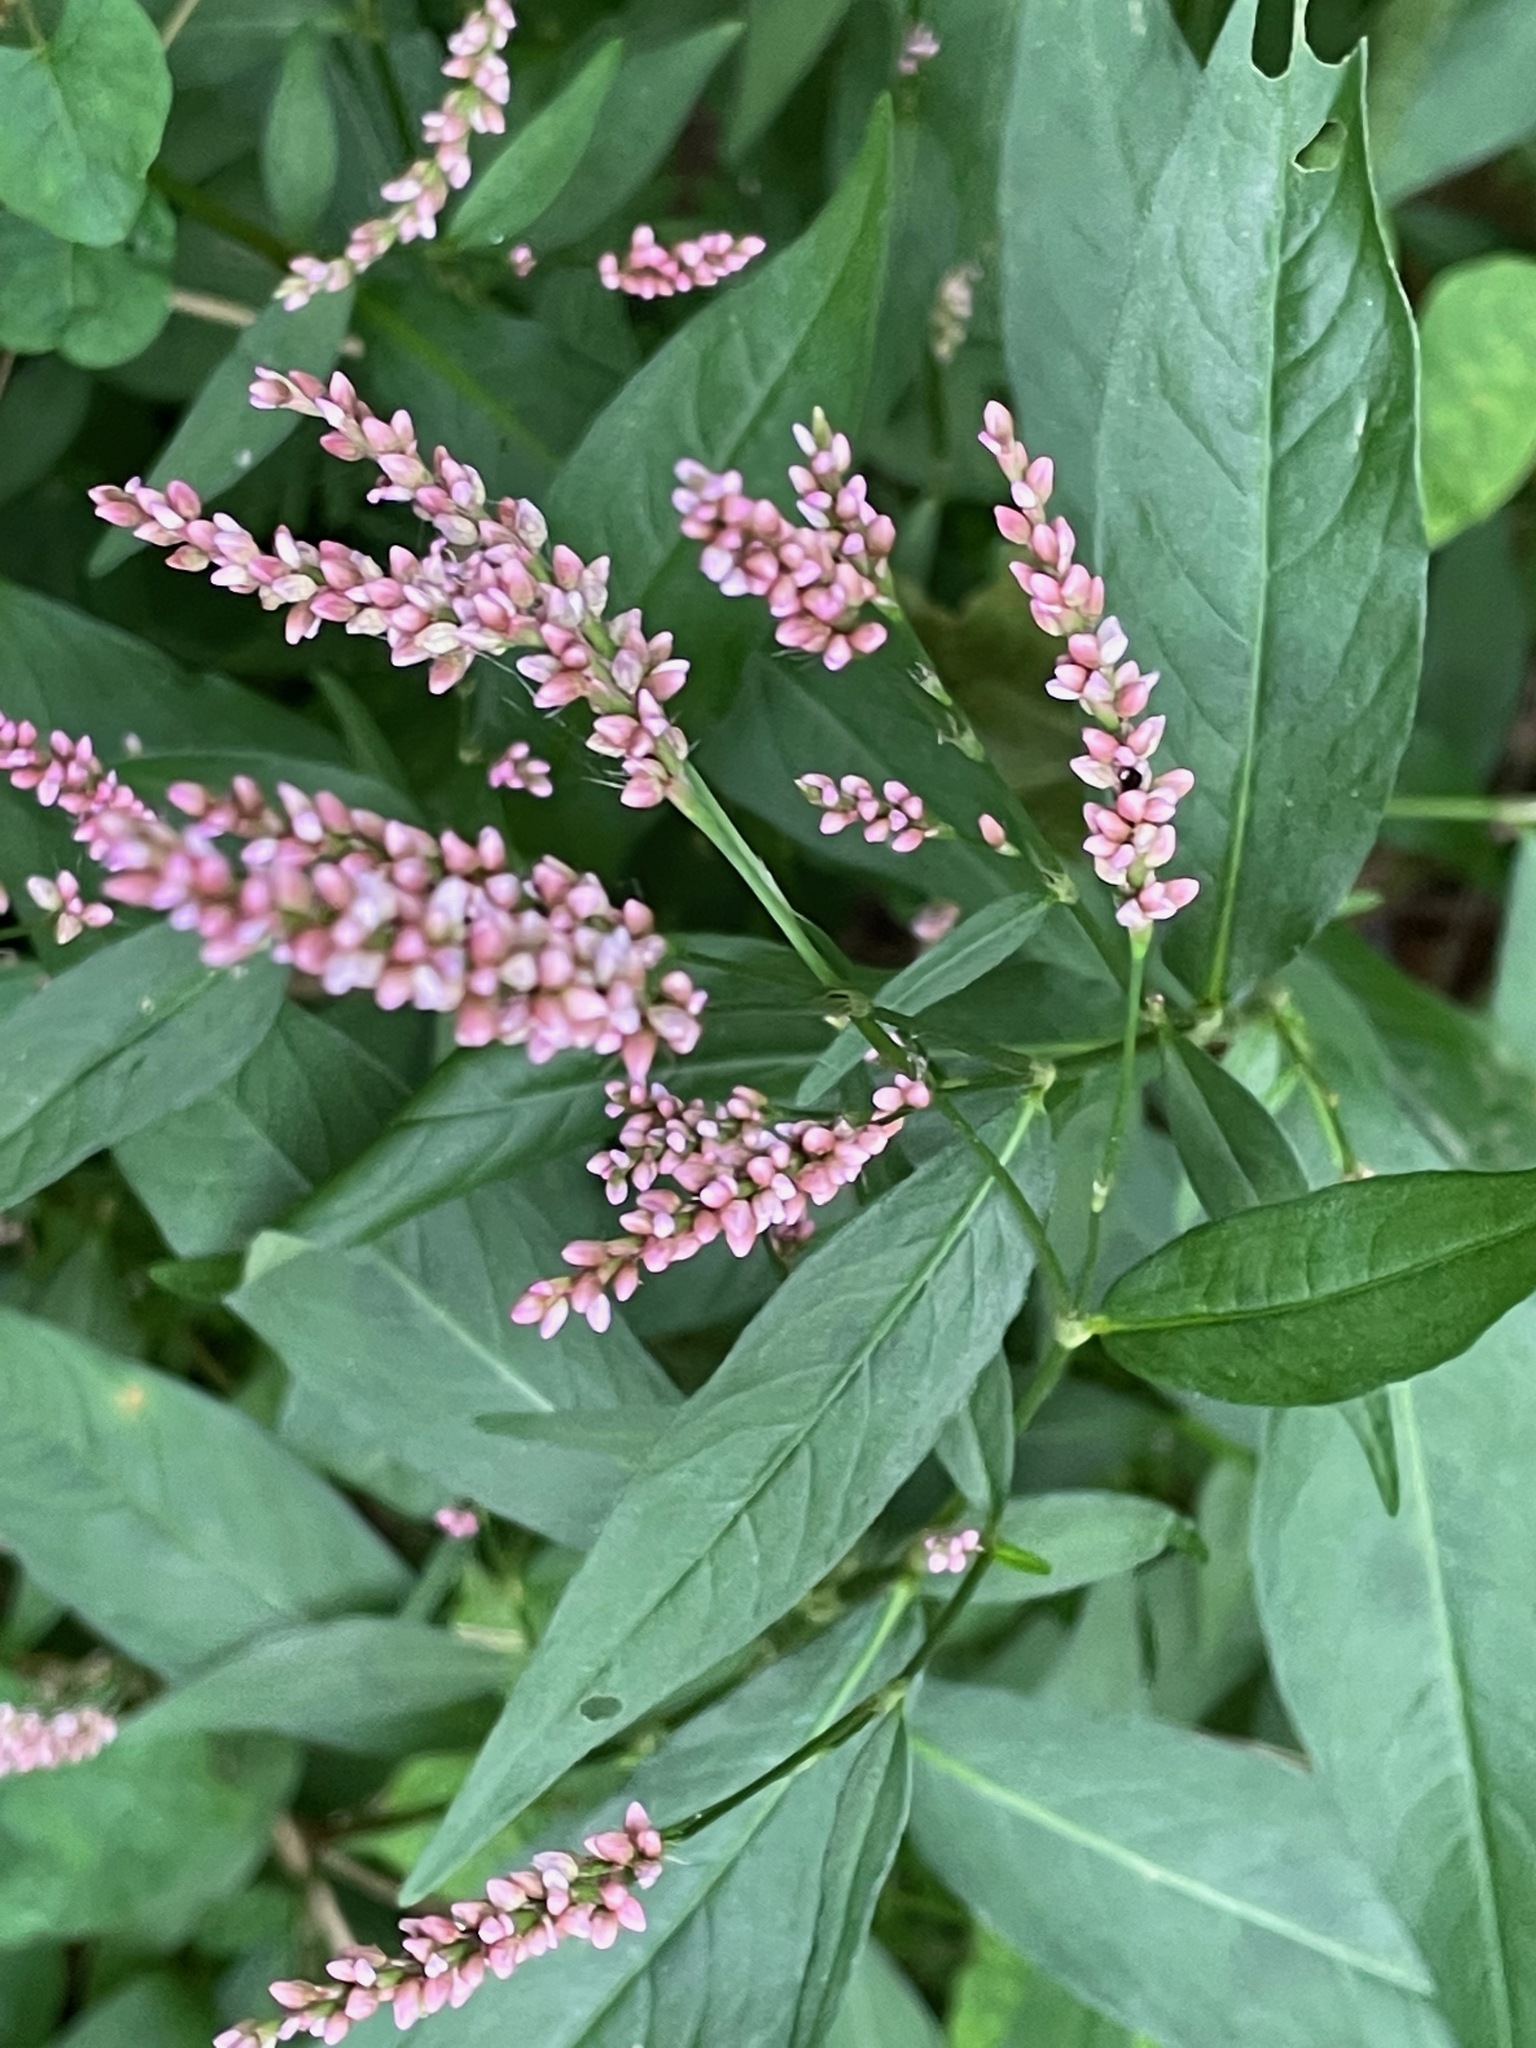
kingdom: Plantae
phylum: Tracheophyta
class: Magnoliopsida
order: Caryophyllales
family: Polygonaceae
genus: Persicaria
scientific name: Persicaria longiseta
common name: Bristly lady's-thumb
